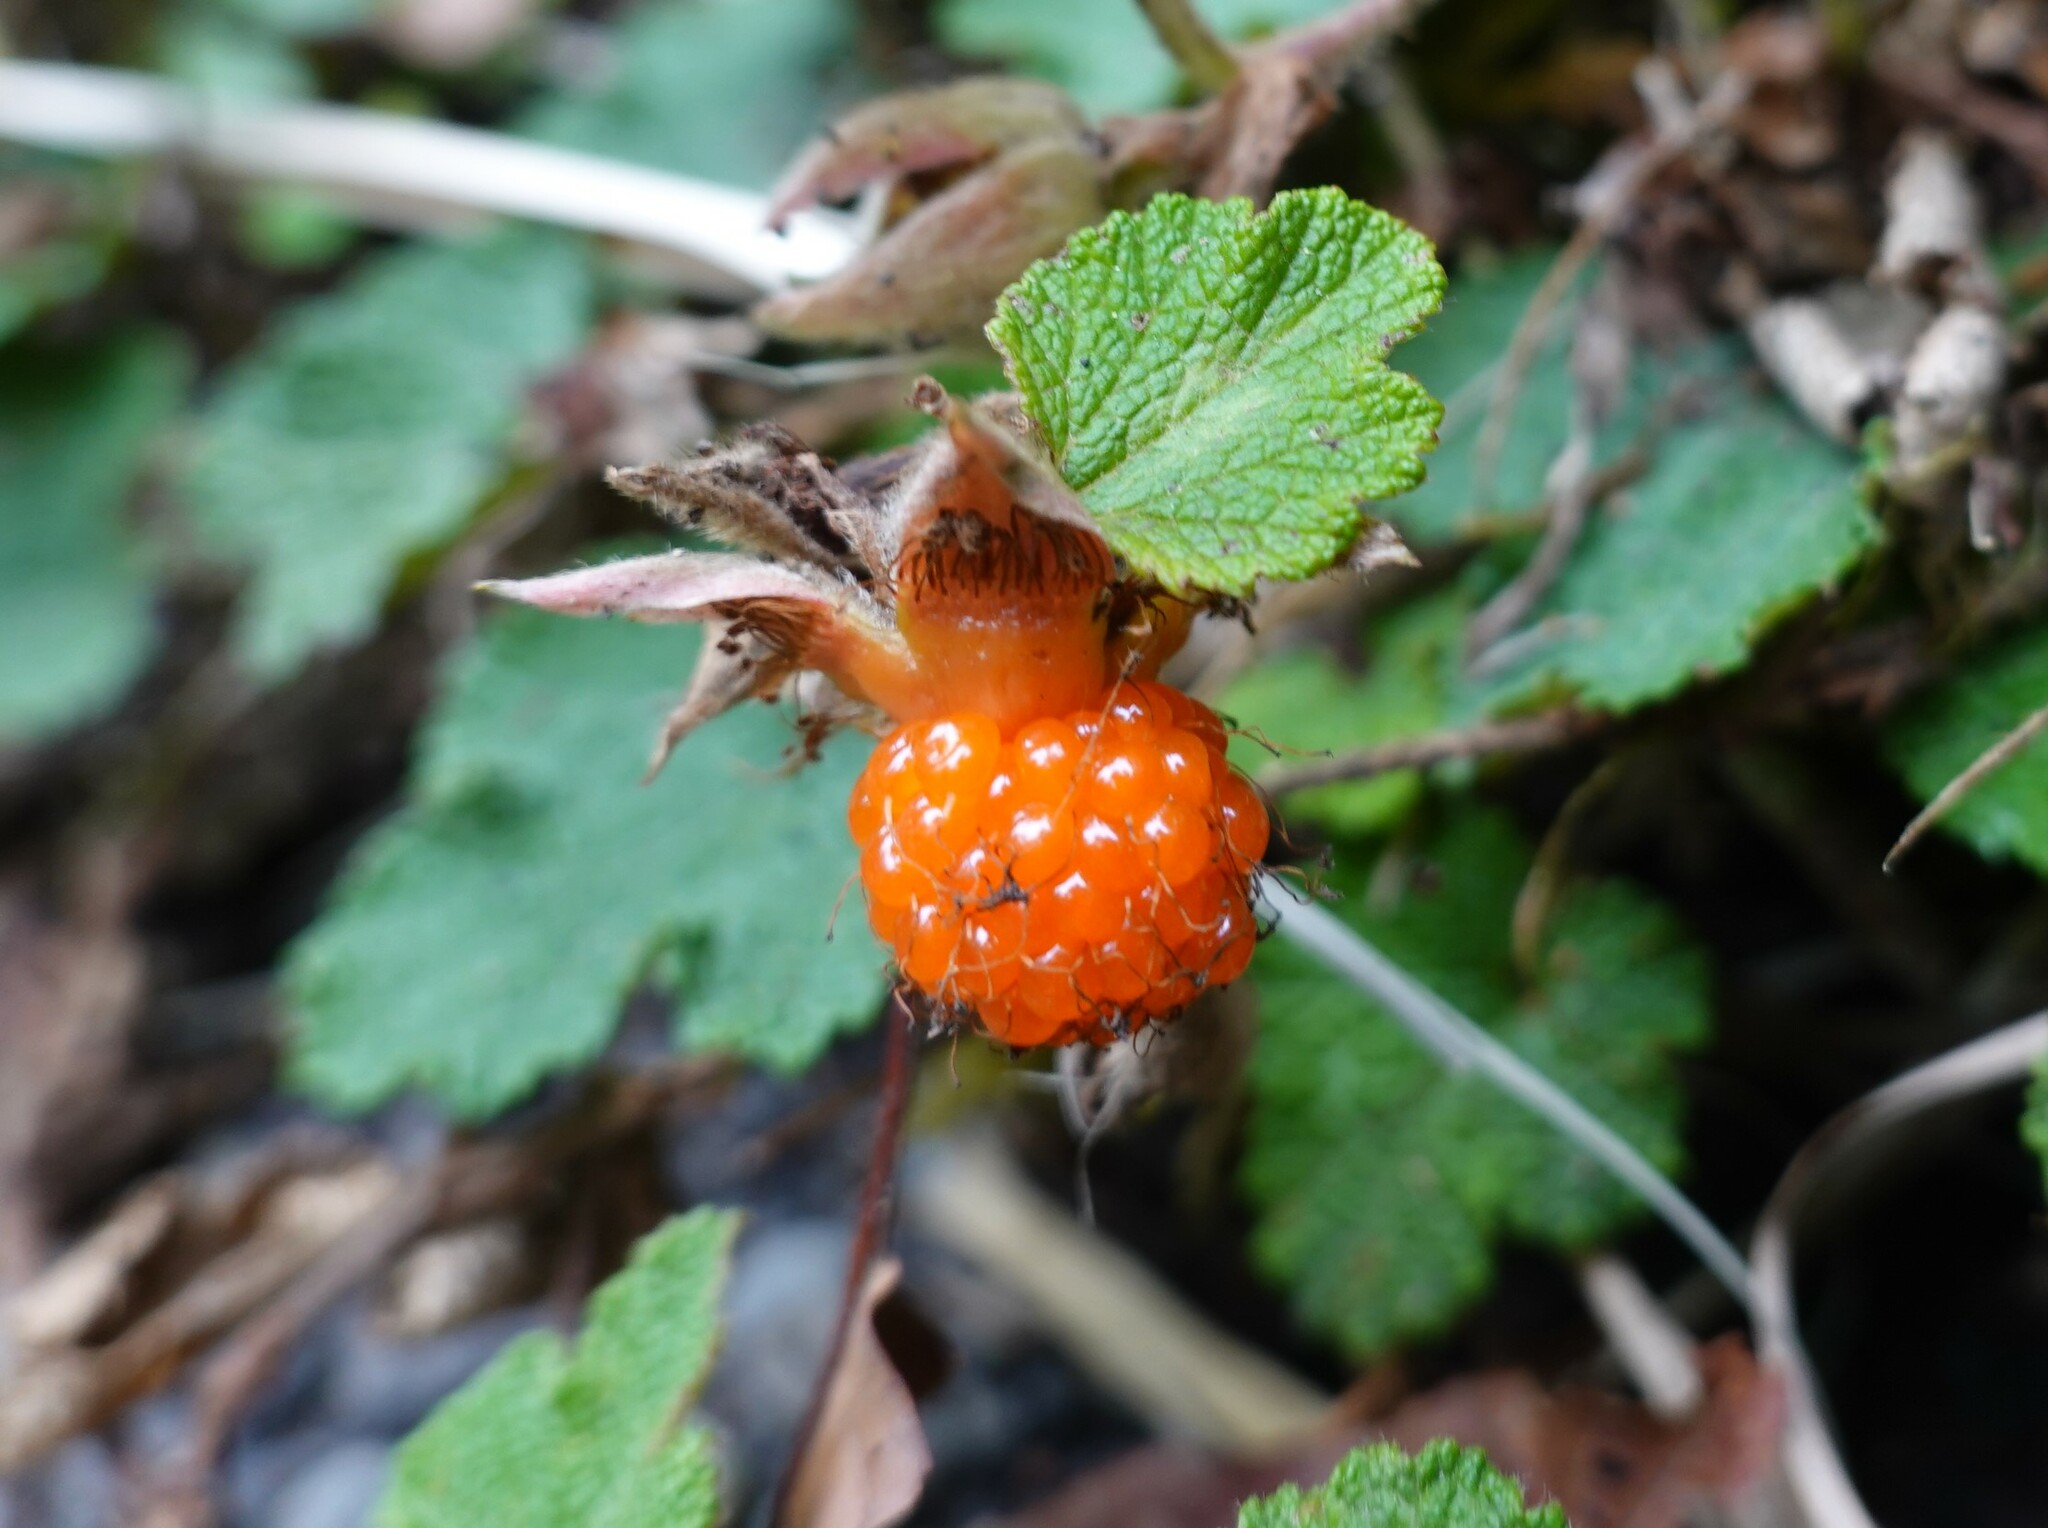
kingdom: Plantae
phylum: Tracheophyta
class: Magnoliopsida
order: Rosales
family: Rosaceae
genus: Rubus
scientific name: Rubus rolfei
